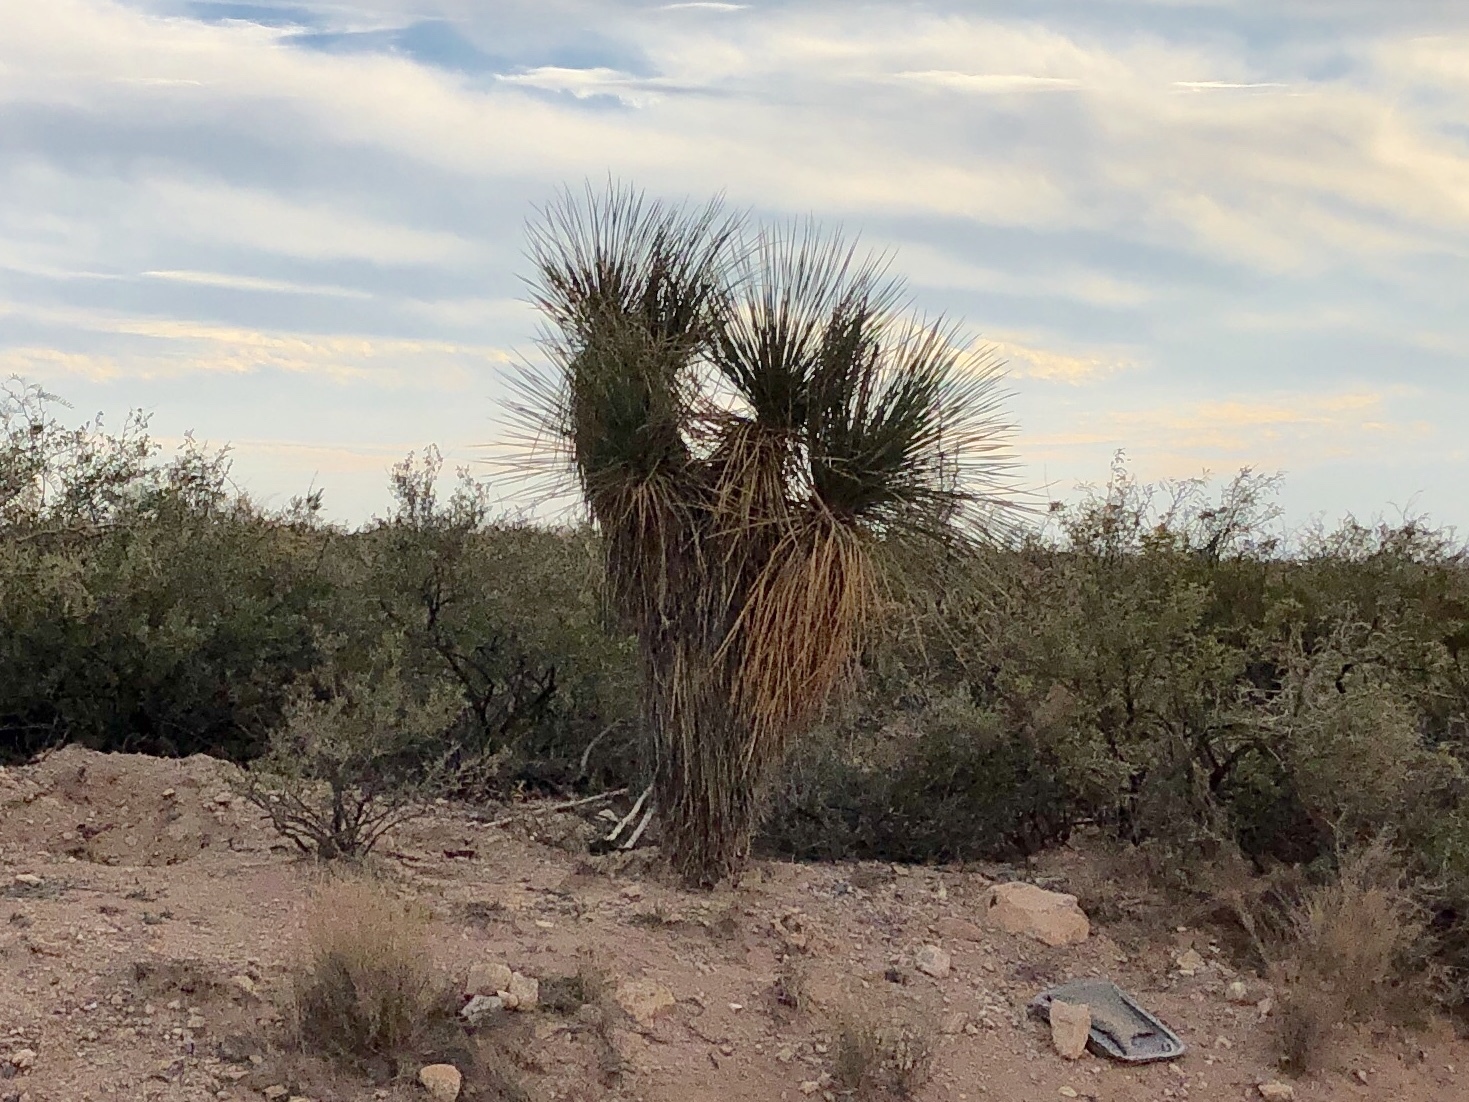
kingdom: Plantae
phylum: Tracheophyta
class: Liliopsida
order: Asparagales
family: Asparagaceae
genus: Yucca
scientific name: Yucca elata
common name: Palmella
